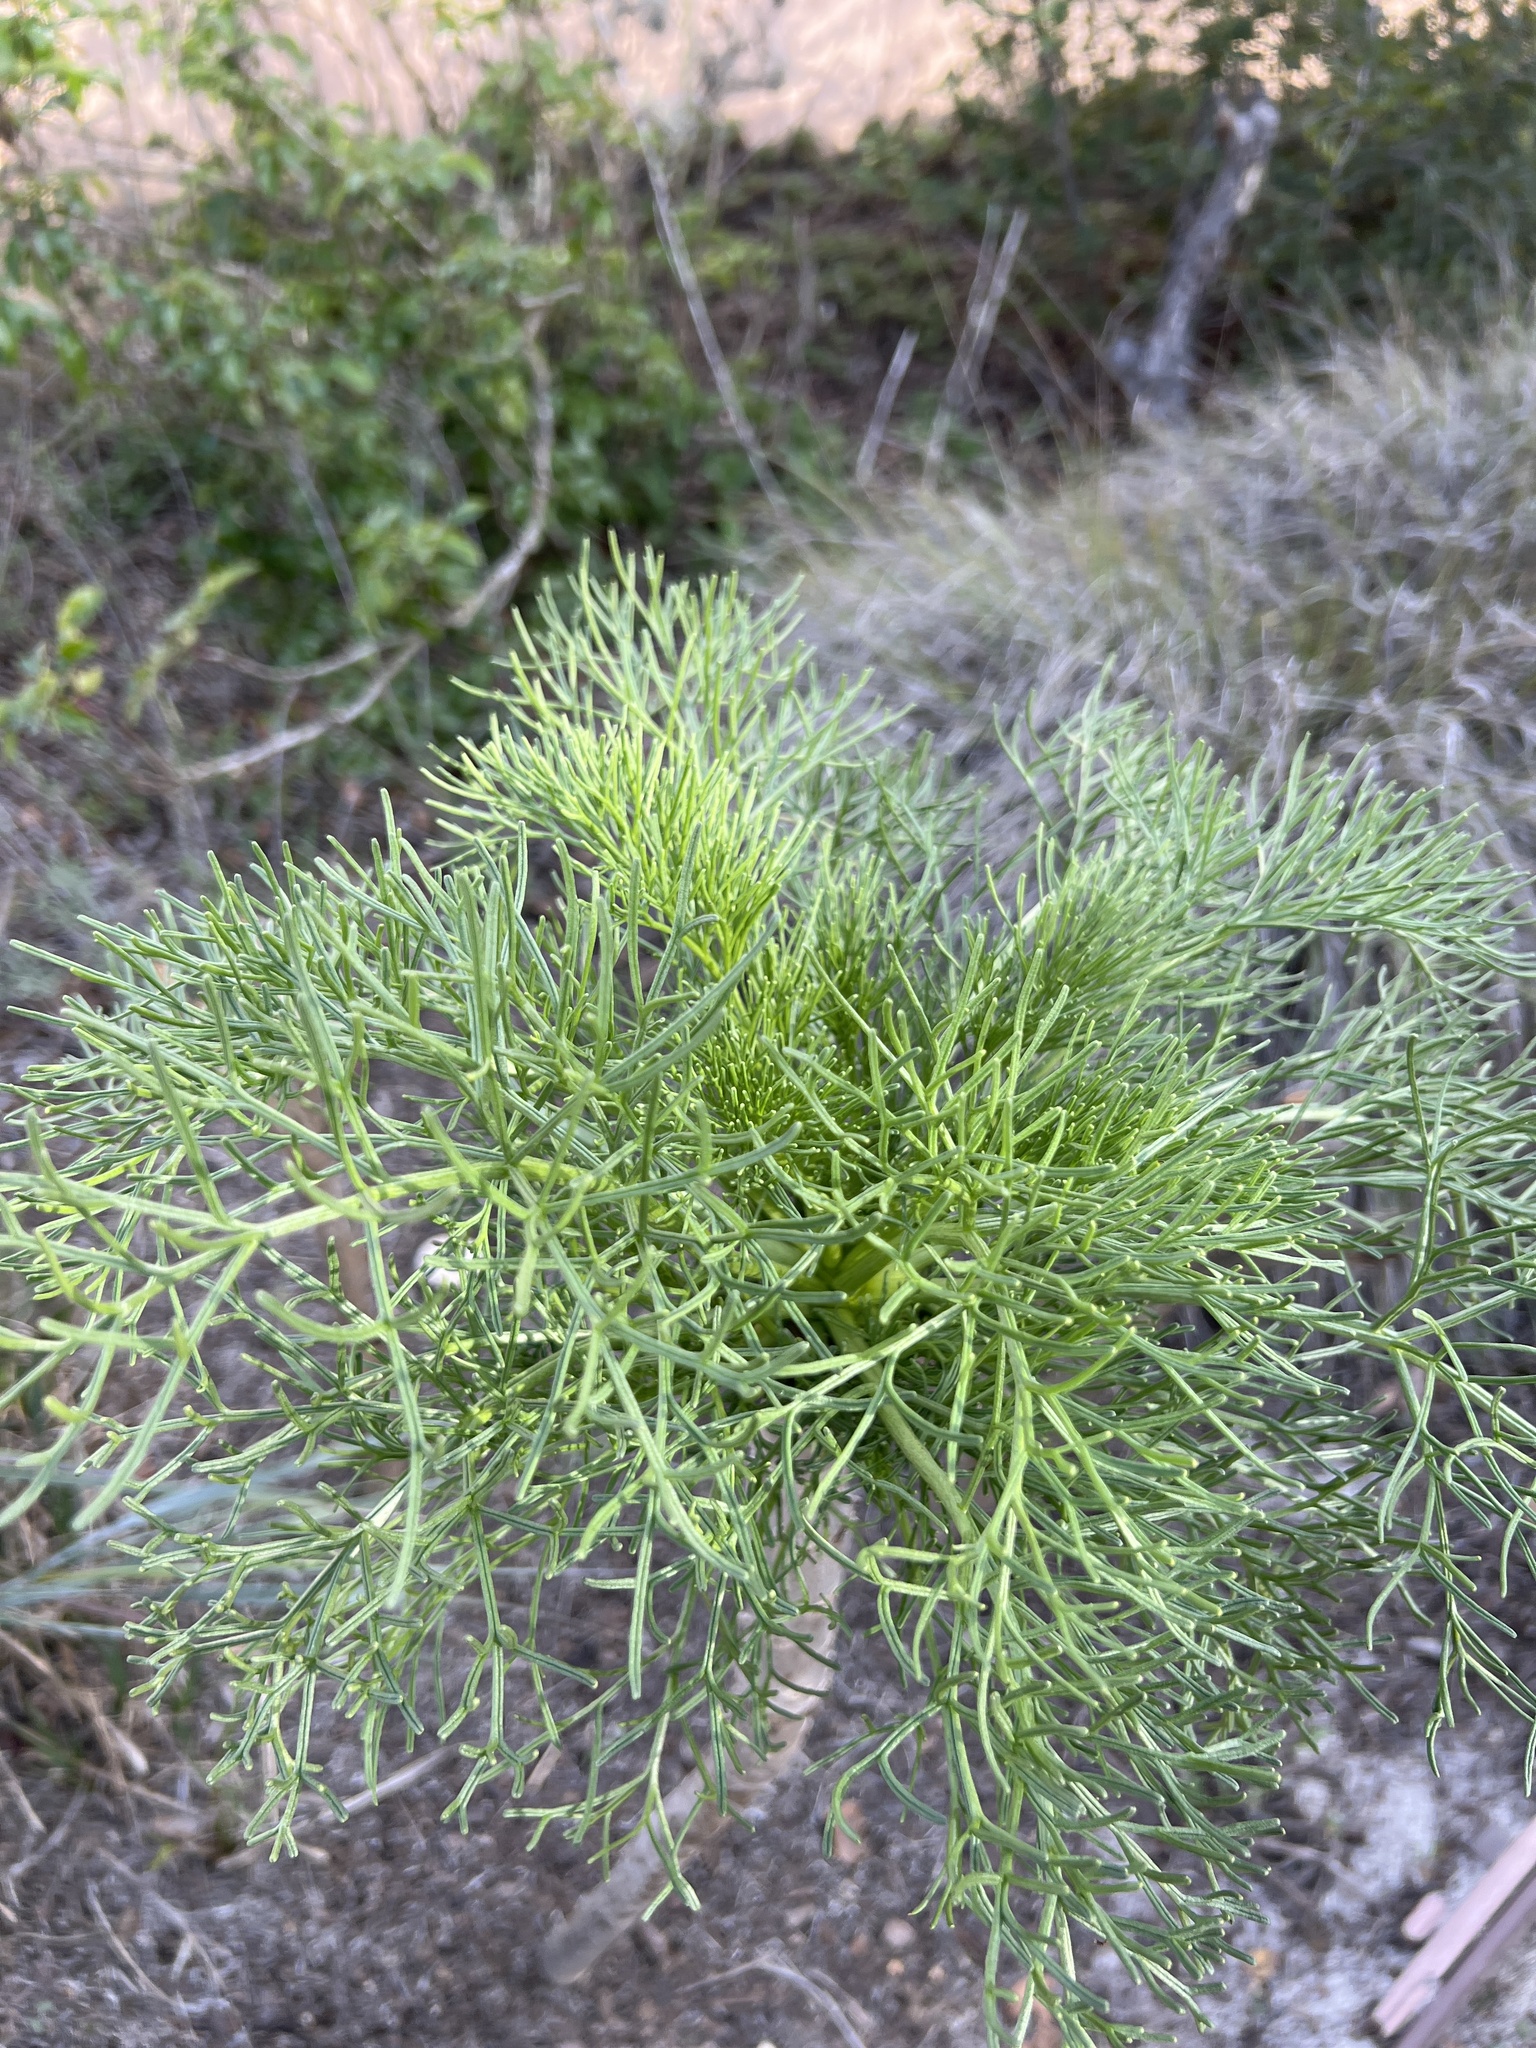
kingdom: Plantae
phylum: Tracheophyta
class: Magnoliopsida
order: Asterales
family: Asteraceae
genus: Coreopsis
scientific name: Coreopsis gigantea
